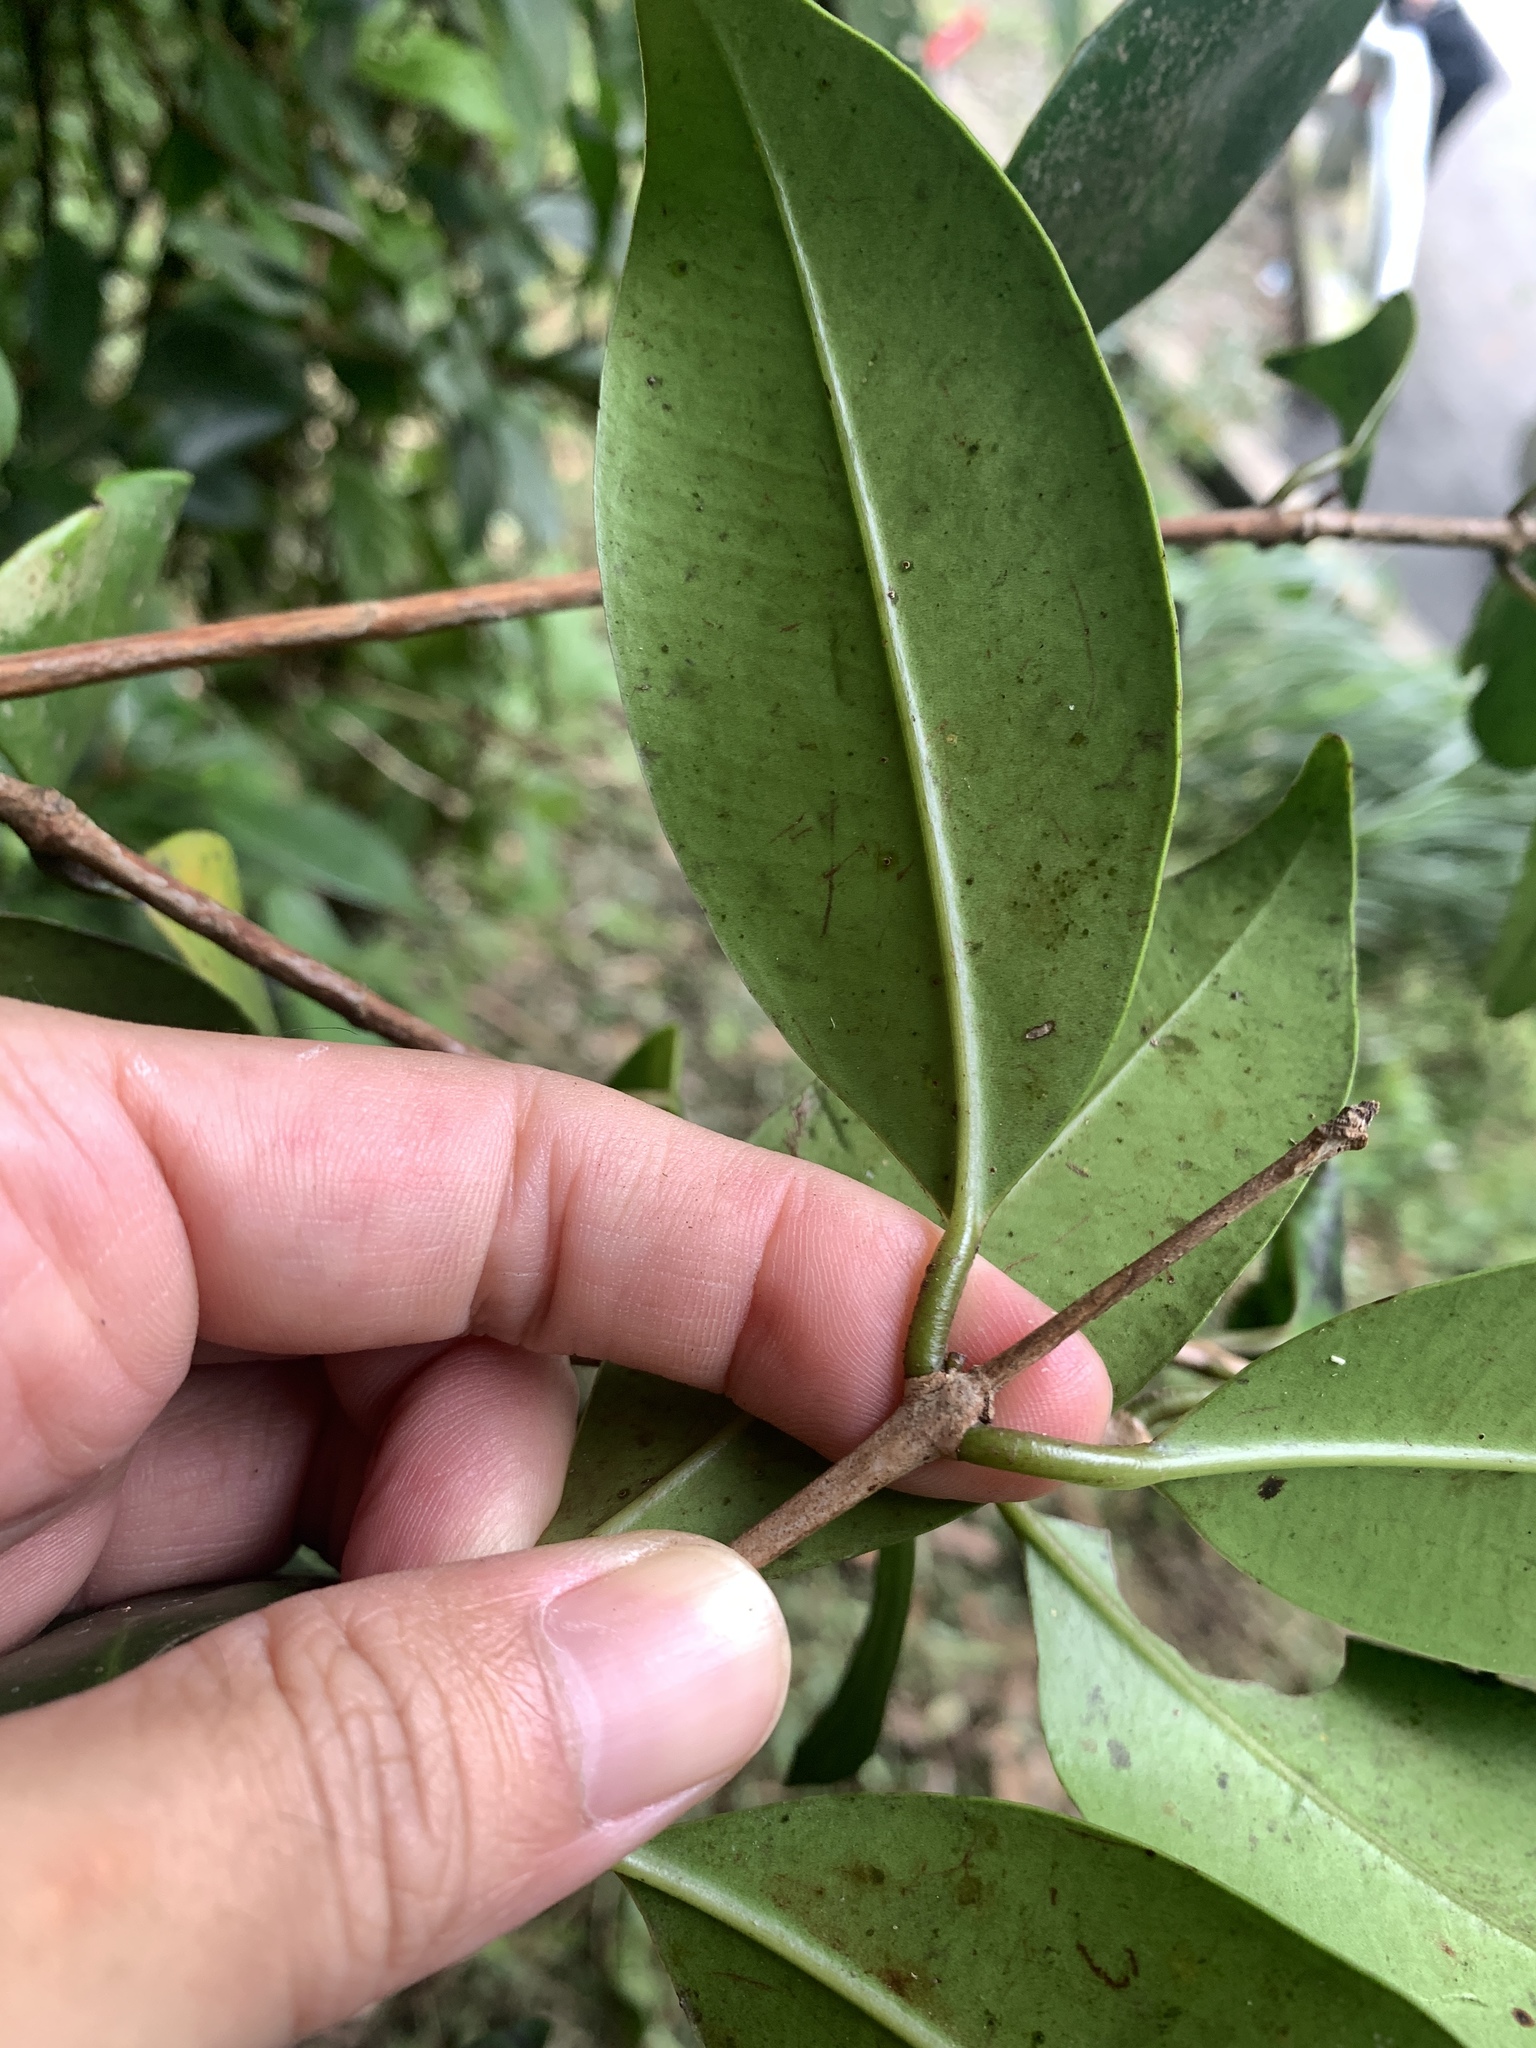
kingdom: Plantae
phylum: Tracheophyta
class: Magnoliopsida
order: Myrtales
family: Myrtaceae
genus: Syzygium
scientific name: Syzygium kusukusense
